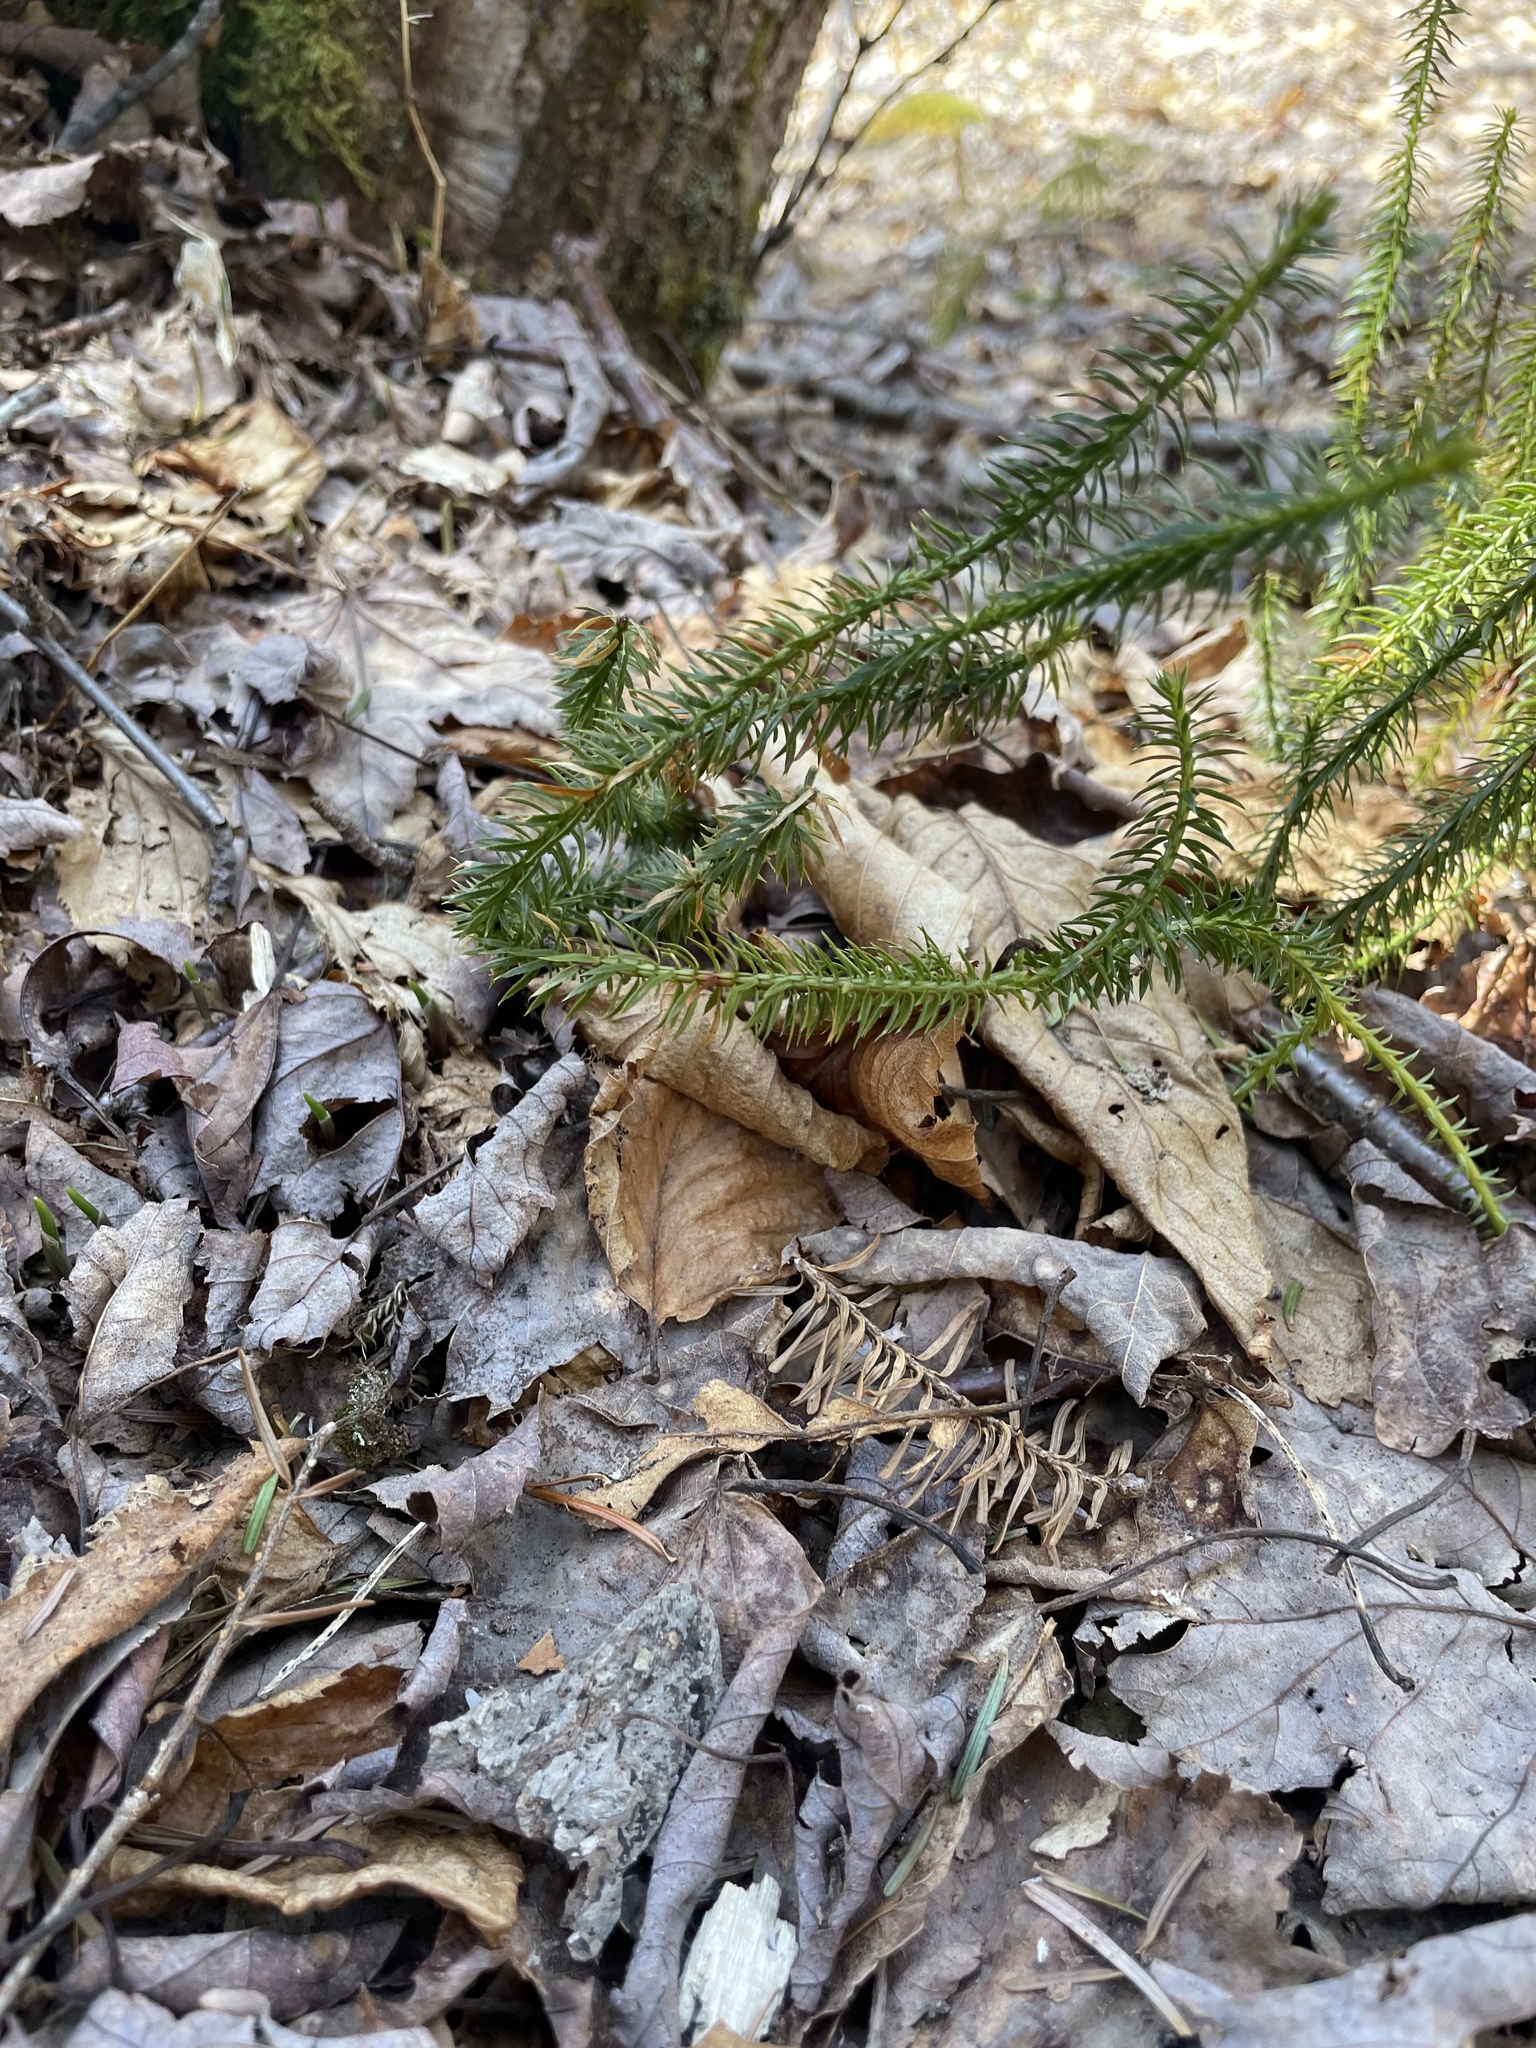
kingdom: Plantae
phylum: Tracheophyta
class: Lycopodiopsida
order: Lycopodiales
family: Lycopodiaceae
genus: Spinulum
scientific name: Spinulum annotinum
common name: Interrupted club-moss
